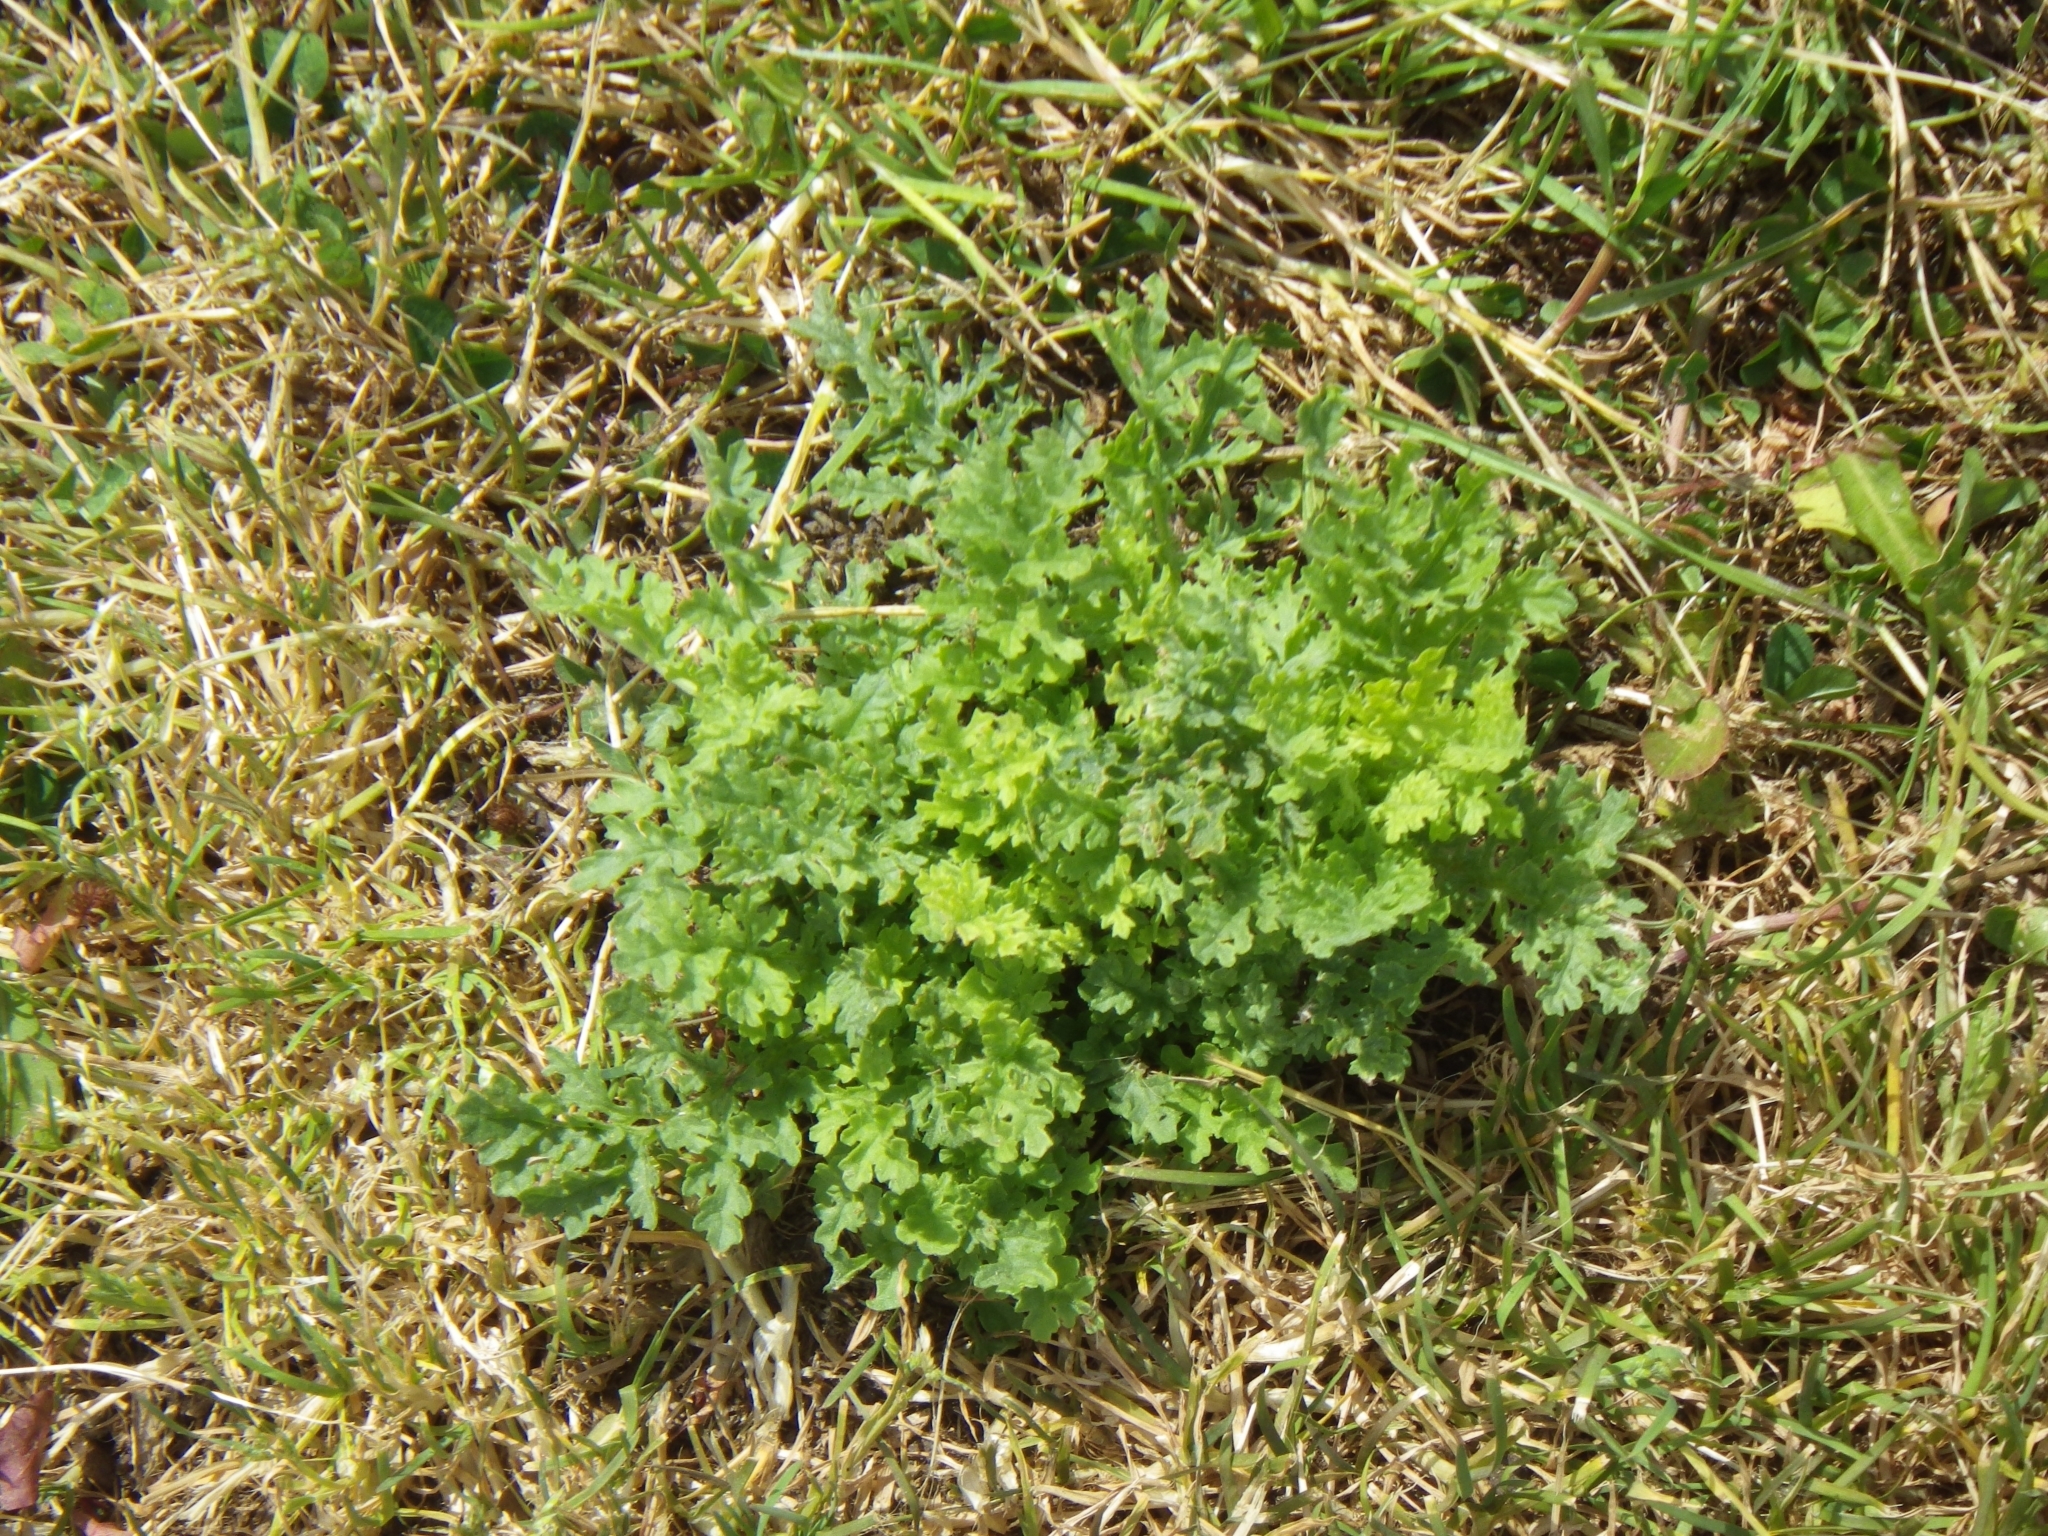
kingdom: Plantae
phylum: Tracheophyta
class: Magnoliopsida
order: Asterales
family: Asteraceae
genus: Jacobaea
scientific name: Jacobaea vulgaris
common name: Stinking willie
